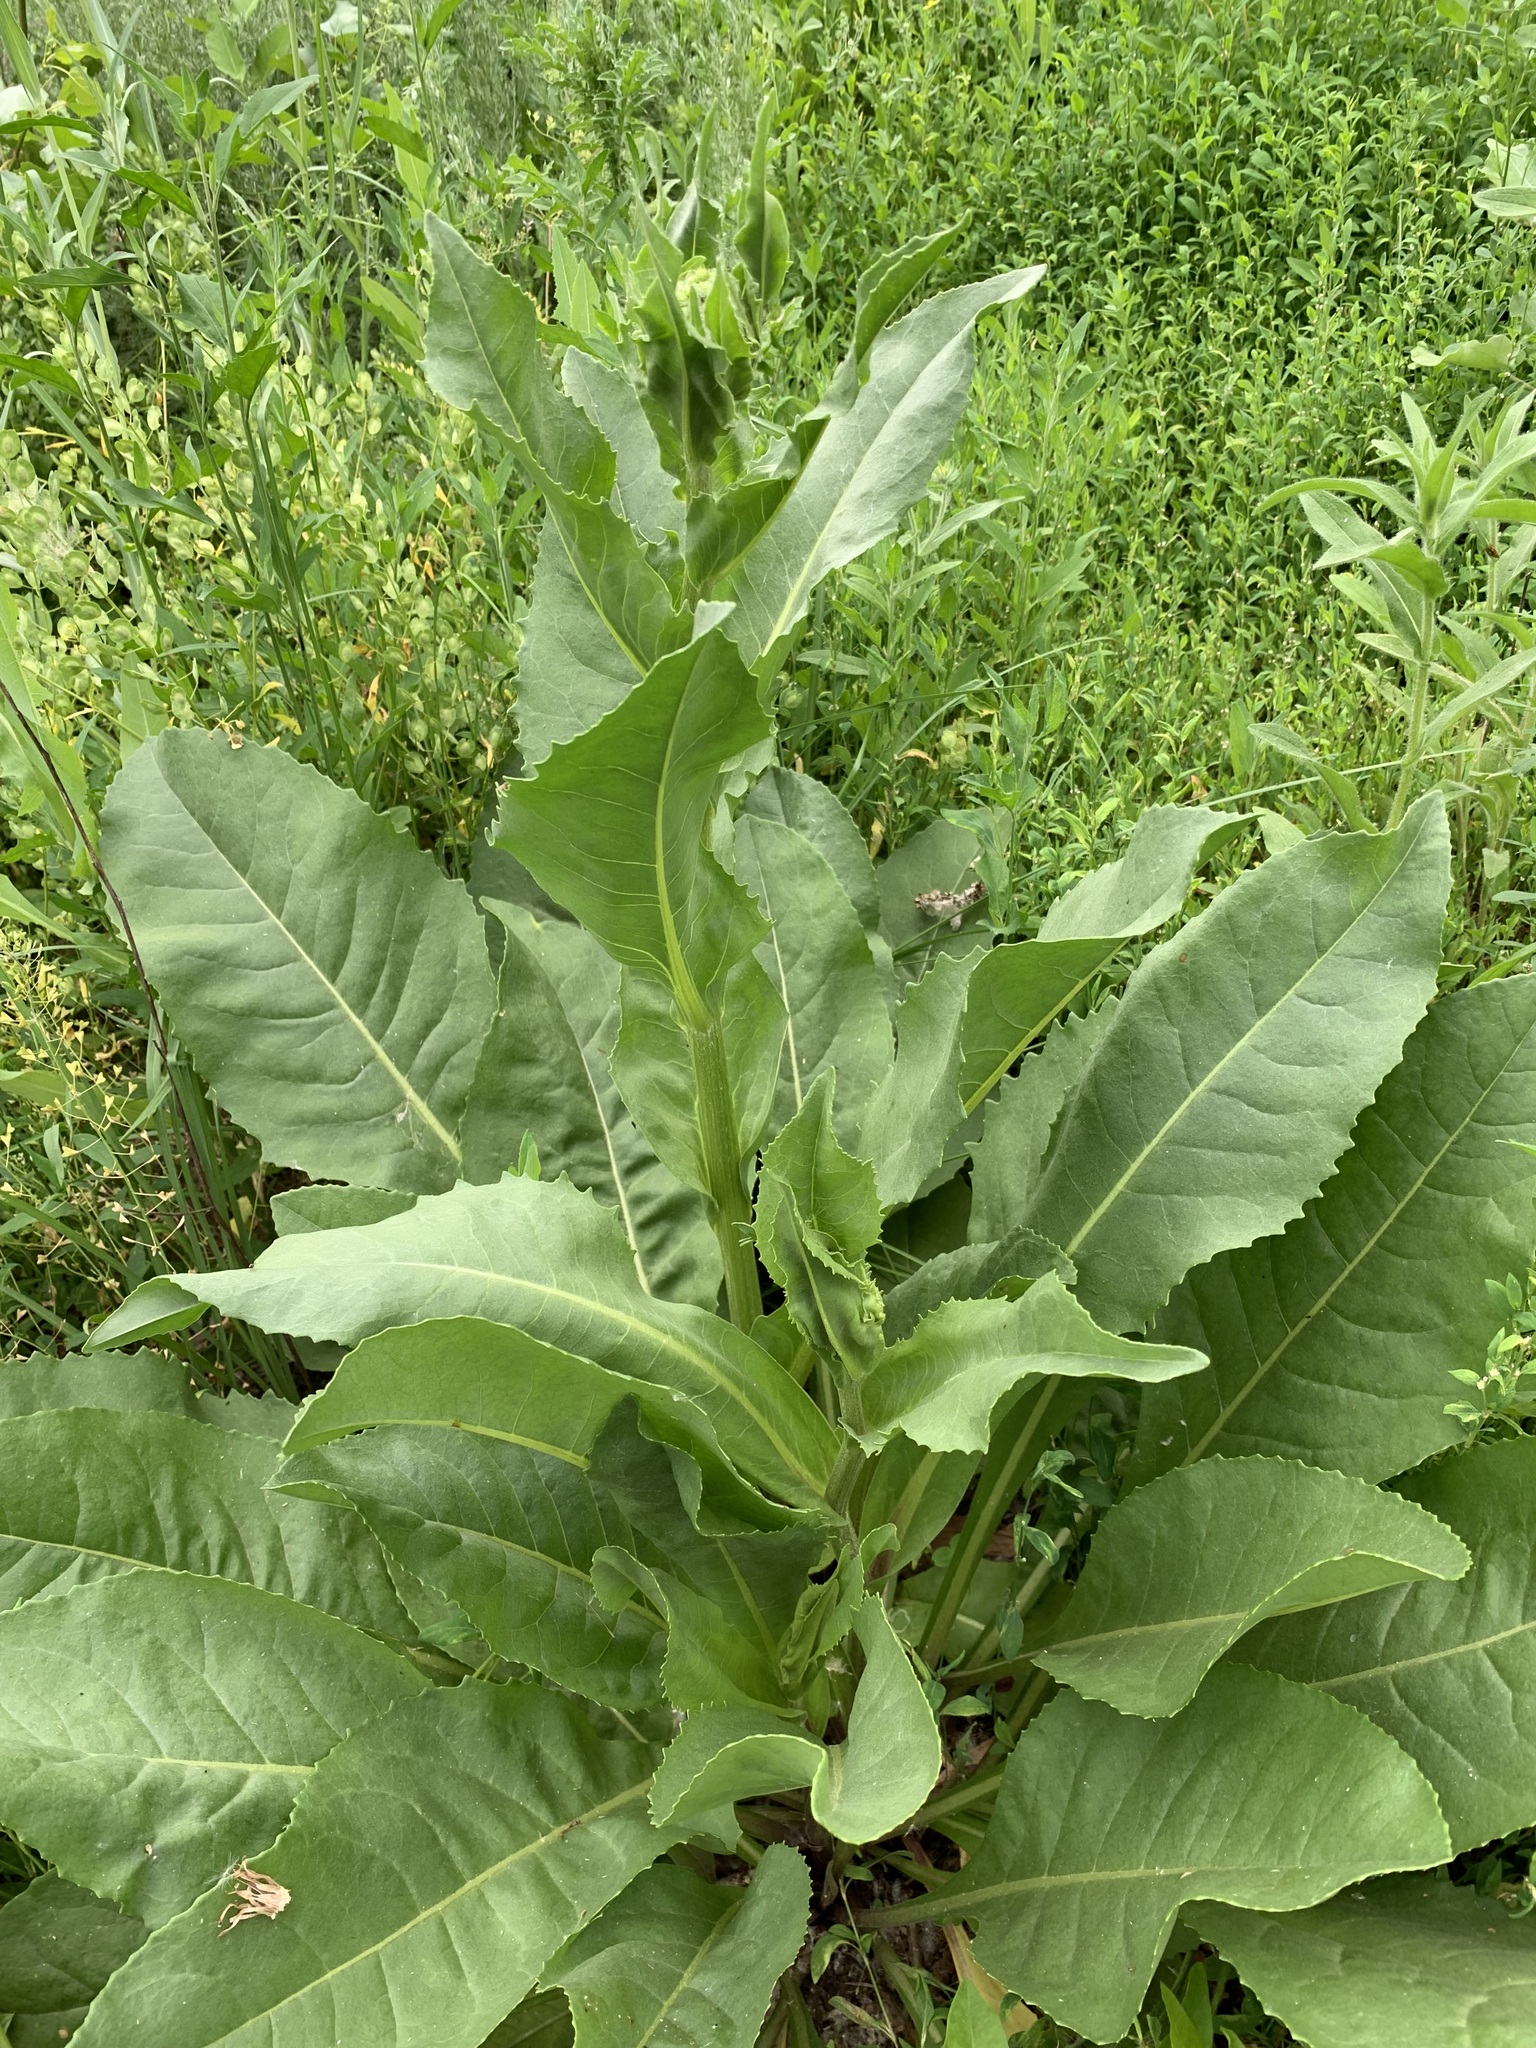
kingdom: Plantae
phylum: Tracheophyta
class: Magnoliopsida
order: Asterales
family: Asteraceae
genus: Senecio
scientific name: Senecio doria
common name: Golden ragwort
